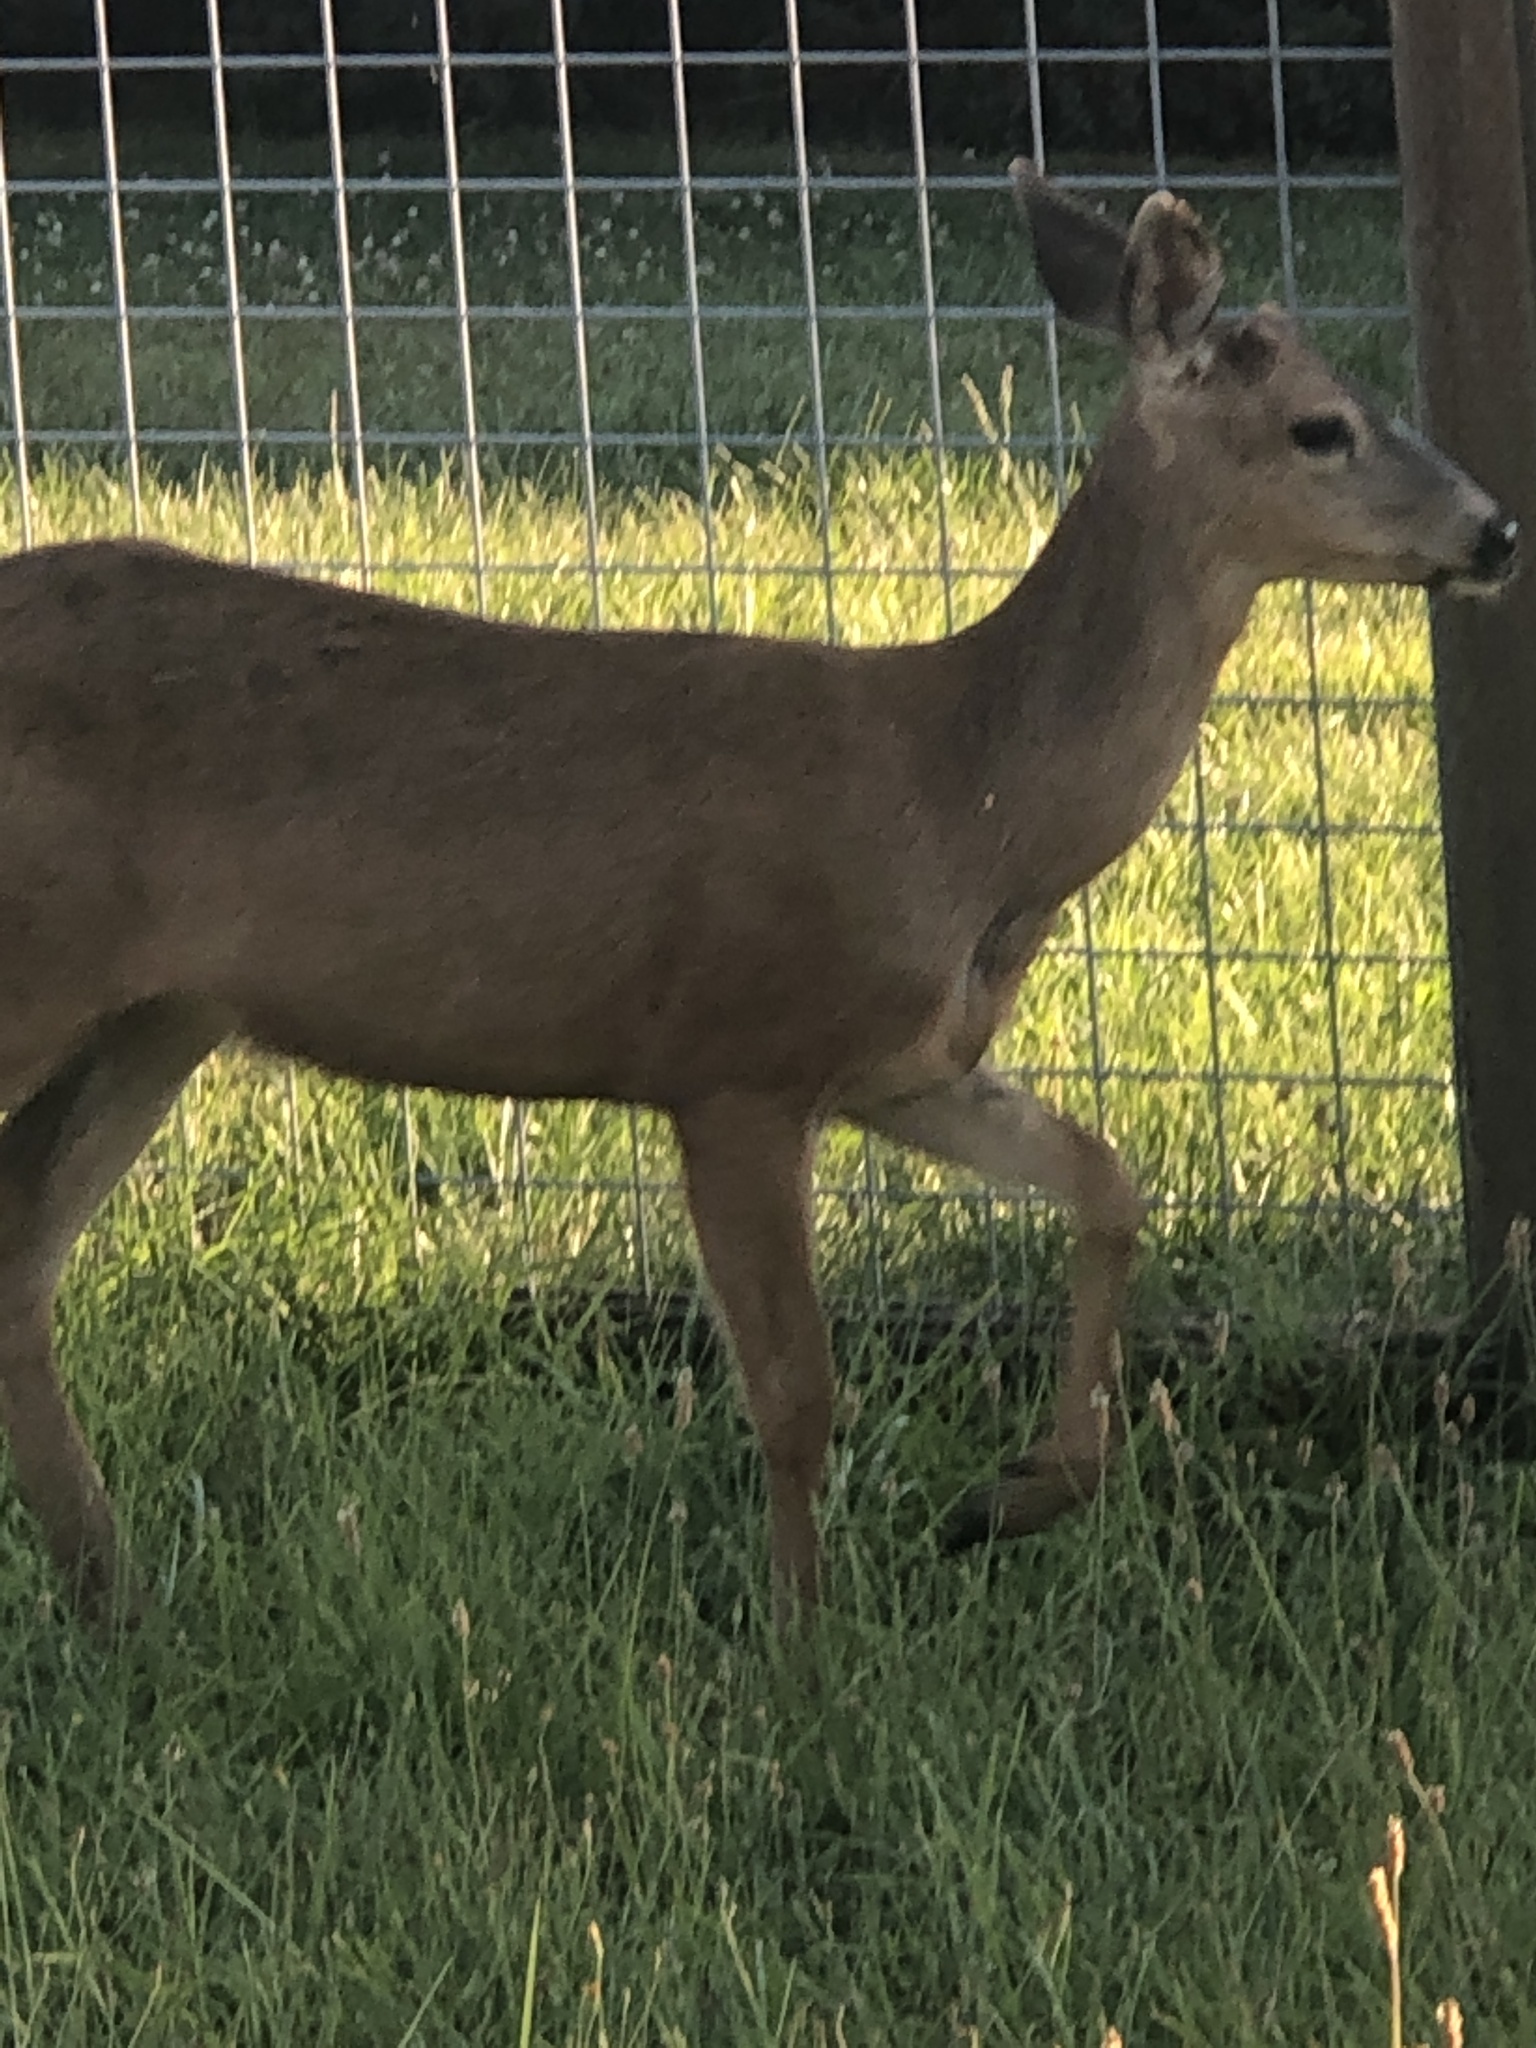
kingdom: Animalia
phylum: Chordata
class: Mammalia
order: Artiodactyla
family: Cervidae
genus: Odocoileus
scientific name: Odocoileus hemionus
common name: Mule deer
